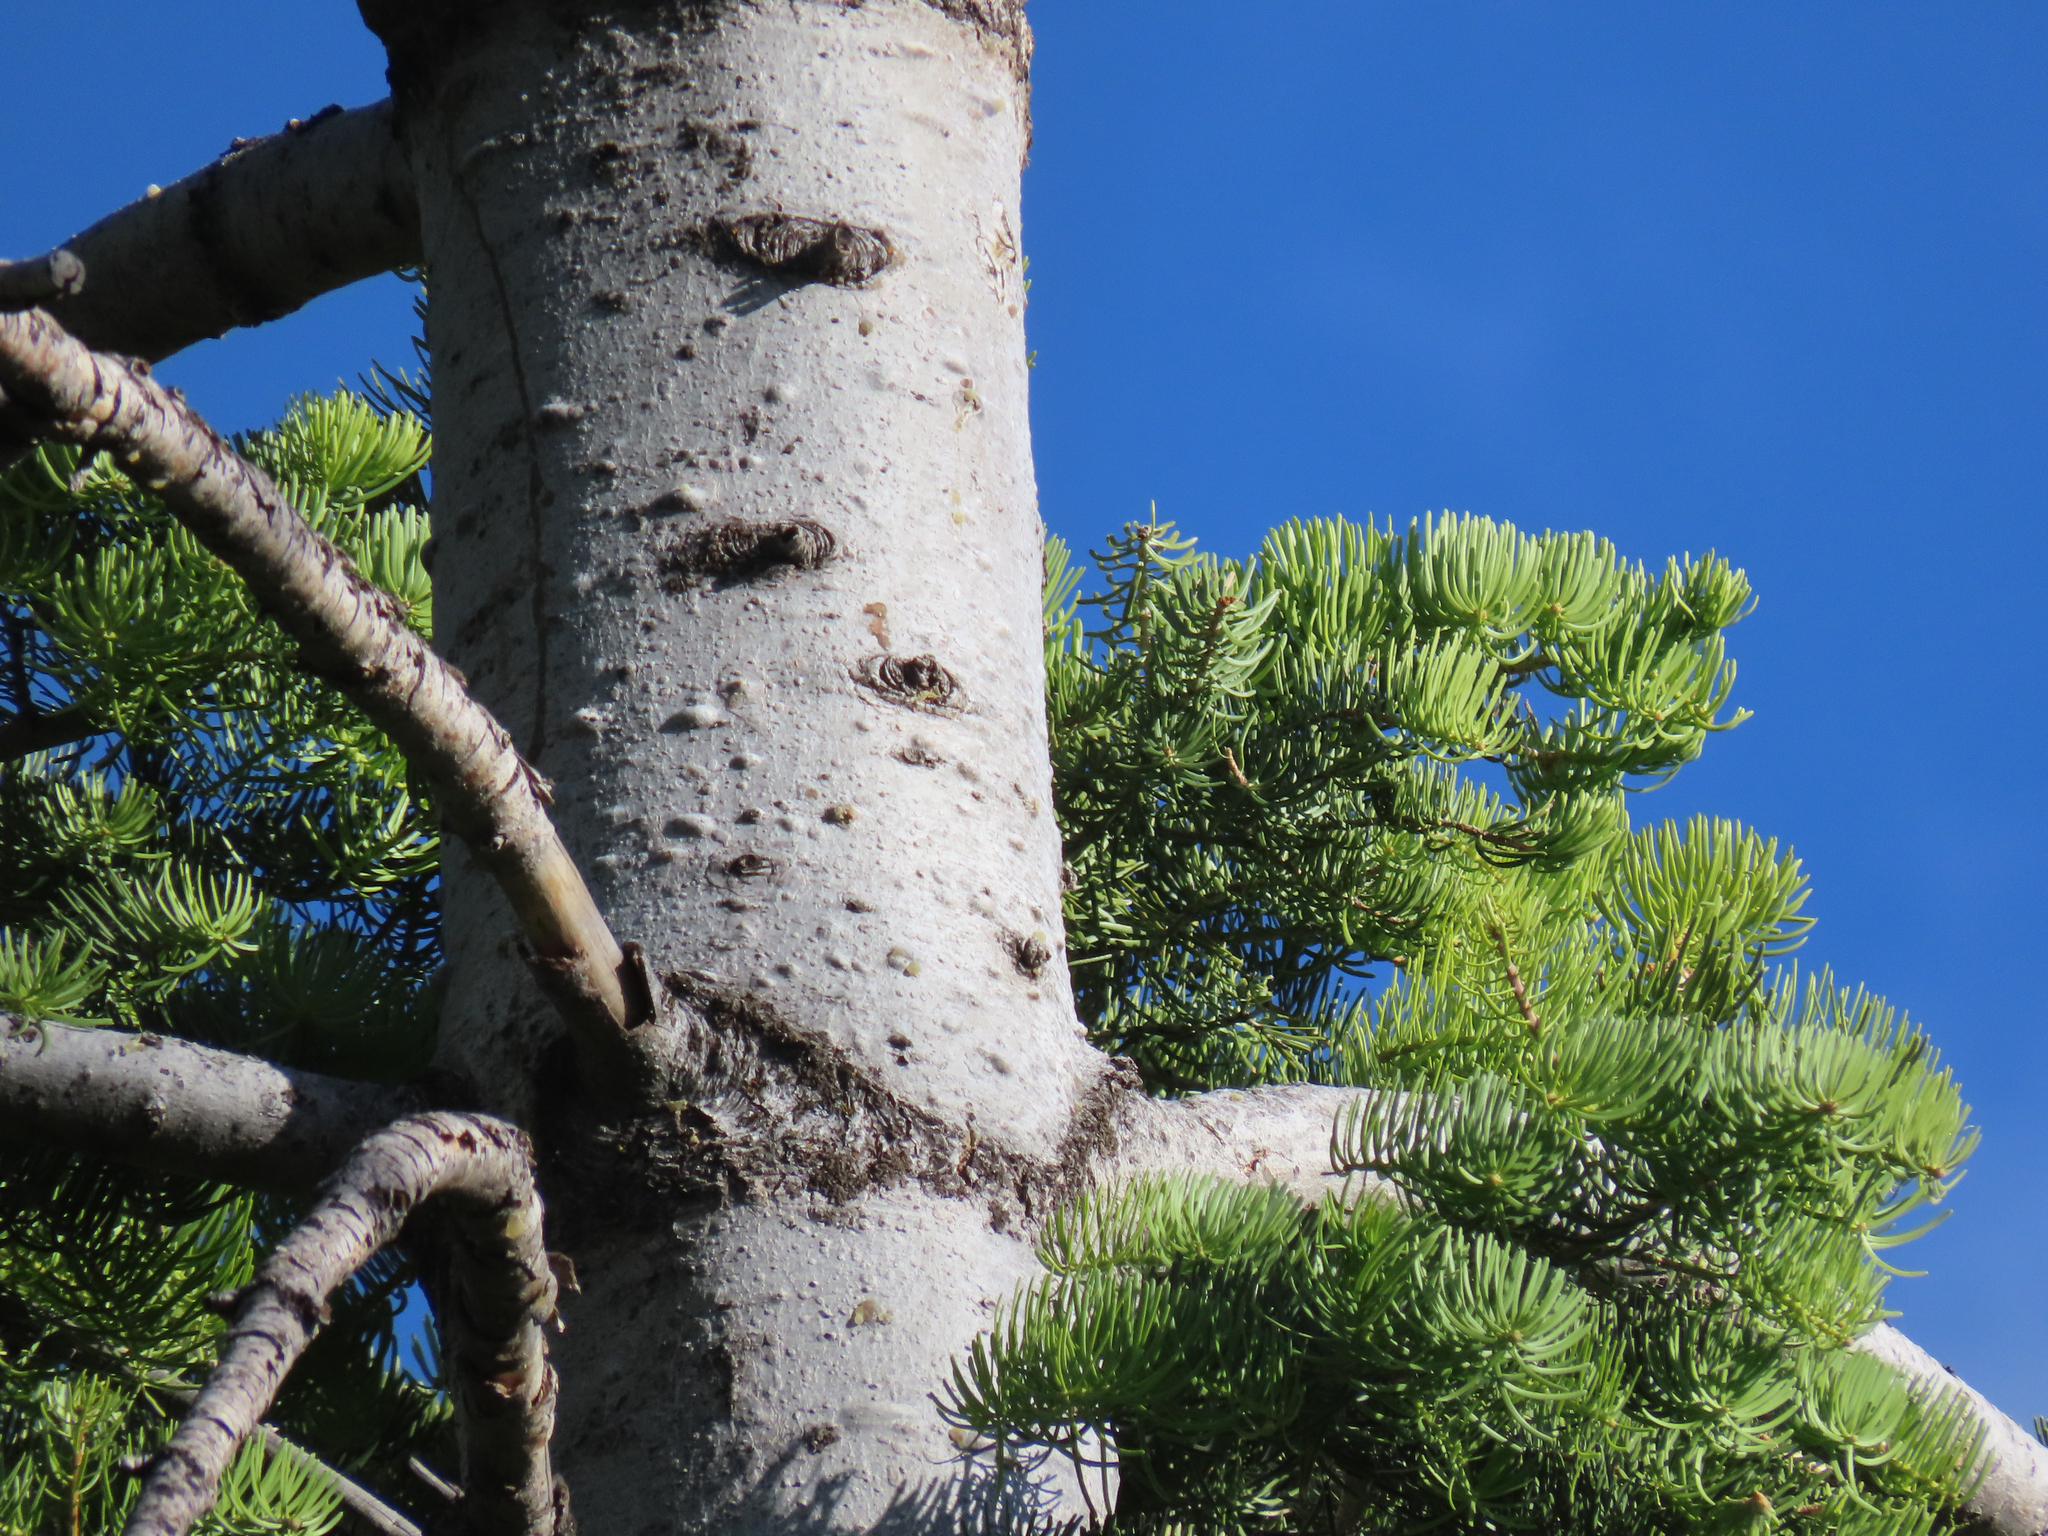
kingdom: Plantae
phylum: Tracheophyta
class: Pinopsida
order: Pinales
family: Pinaceae
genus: Abies
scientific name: Abies concolor
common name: Colorado fir
